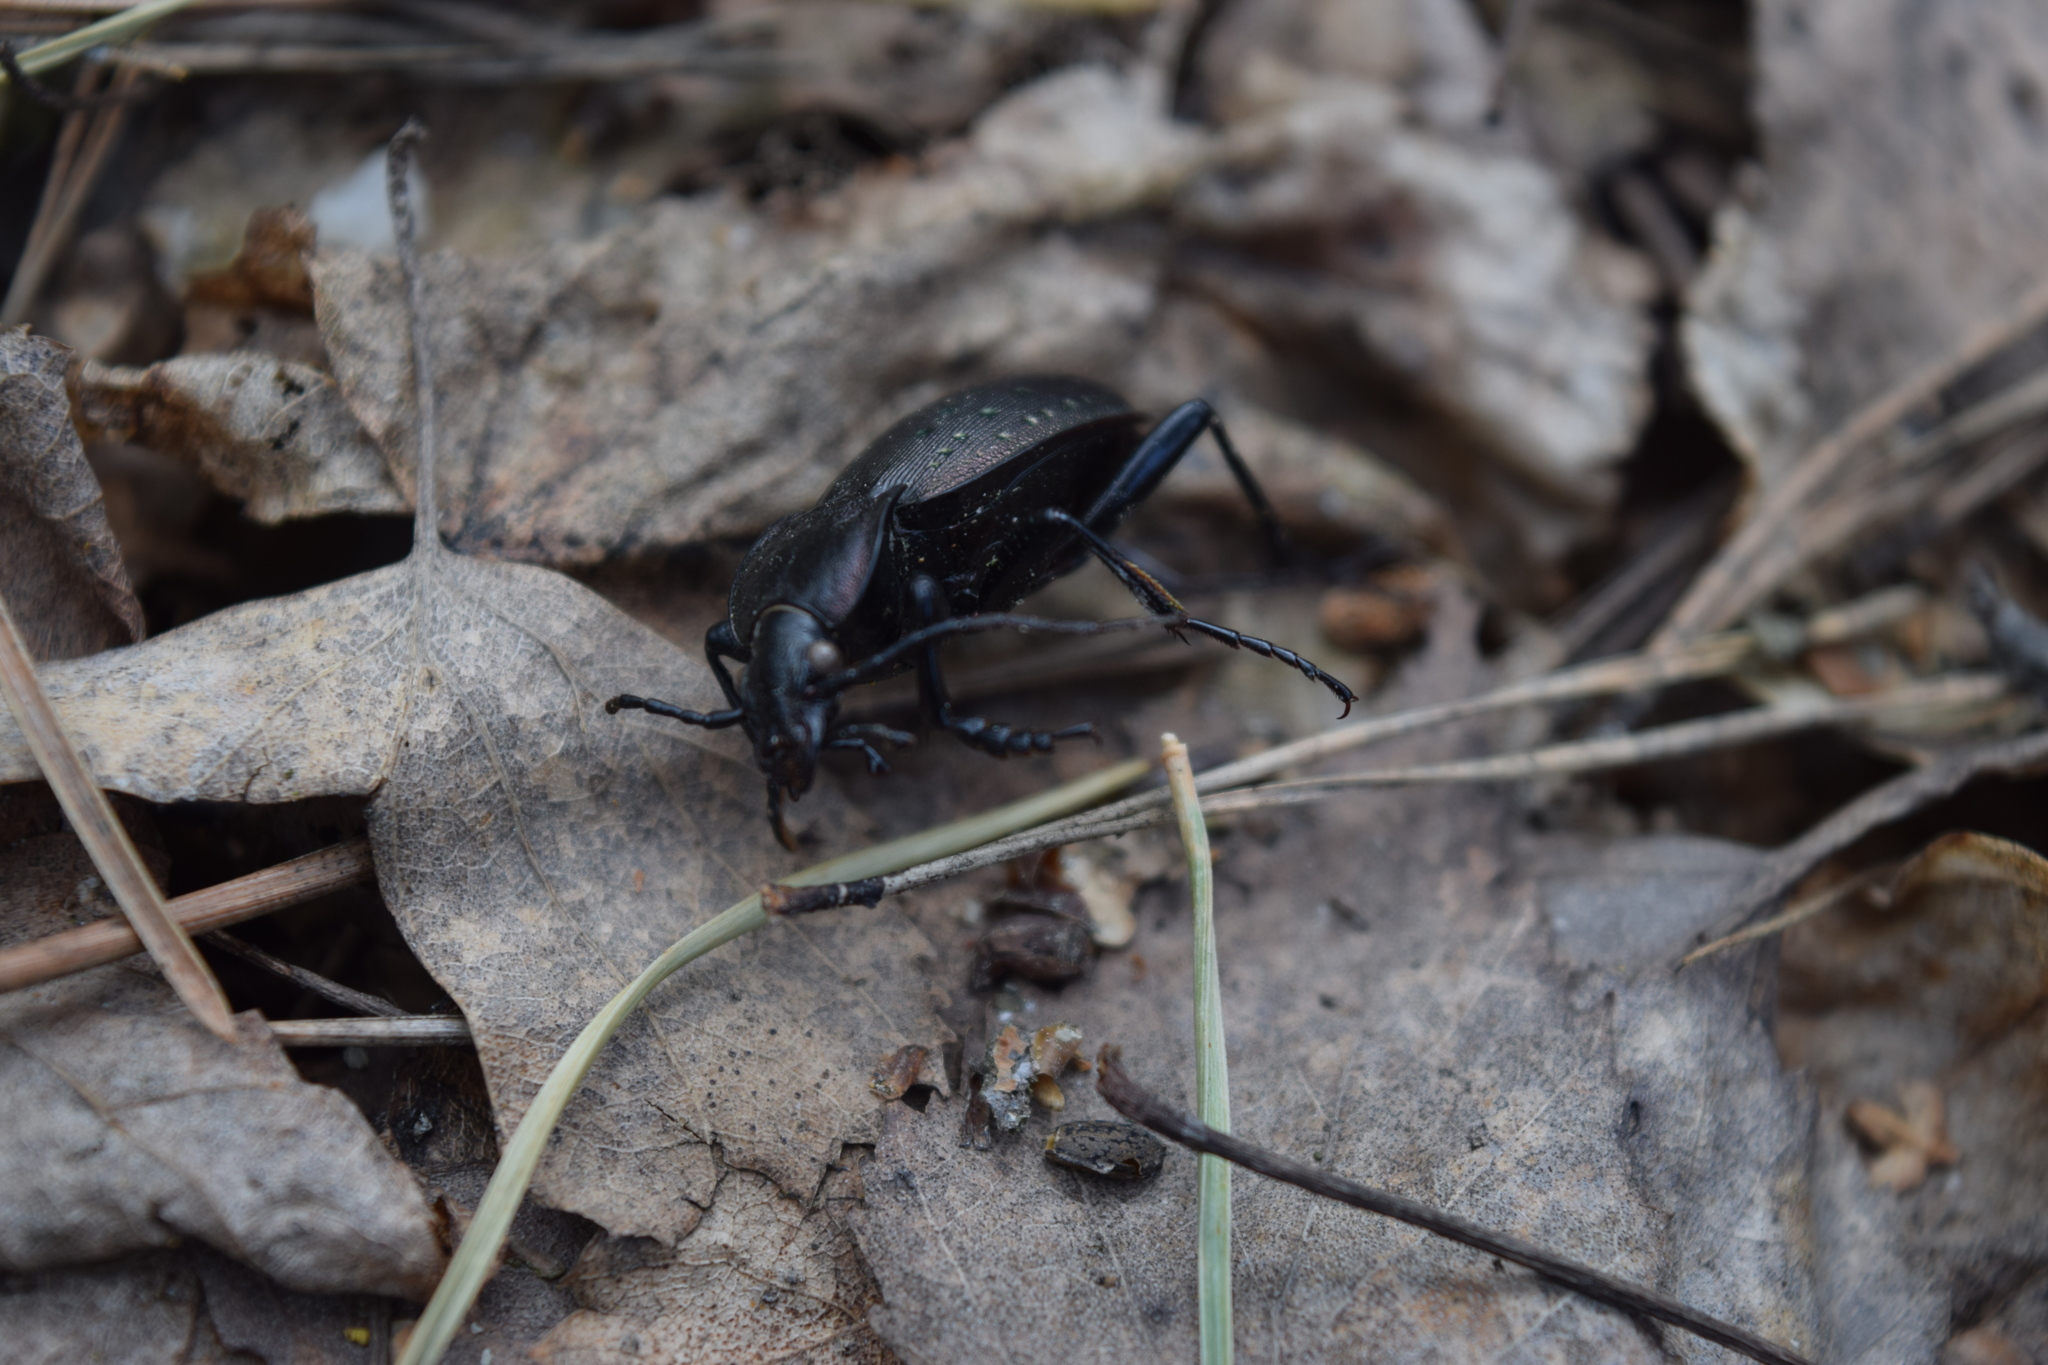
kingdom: Animalia
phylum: Arthropoda
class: Insecta
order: Coleoptera
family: Carabidae
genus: Carabus
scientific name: Carabus hortensis
